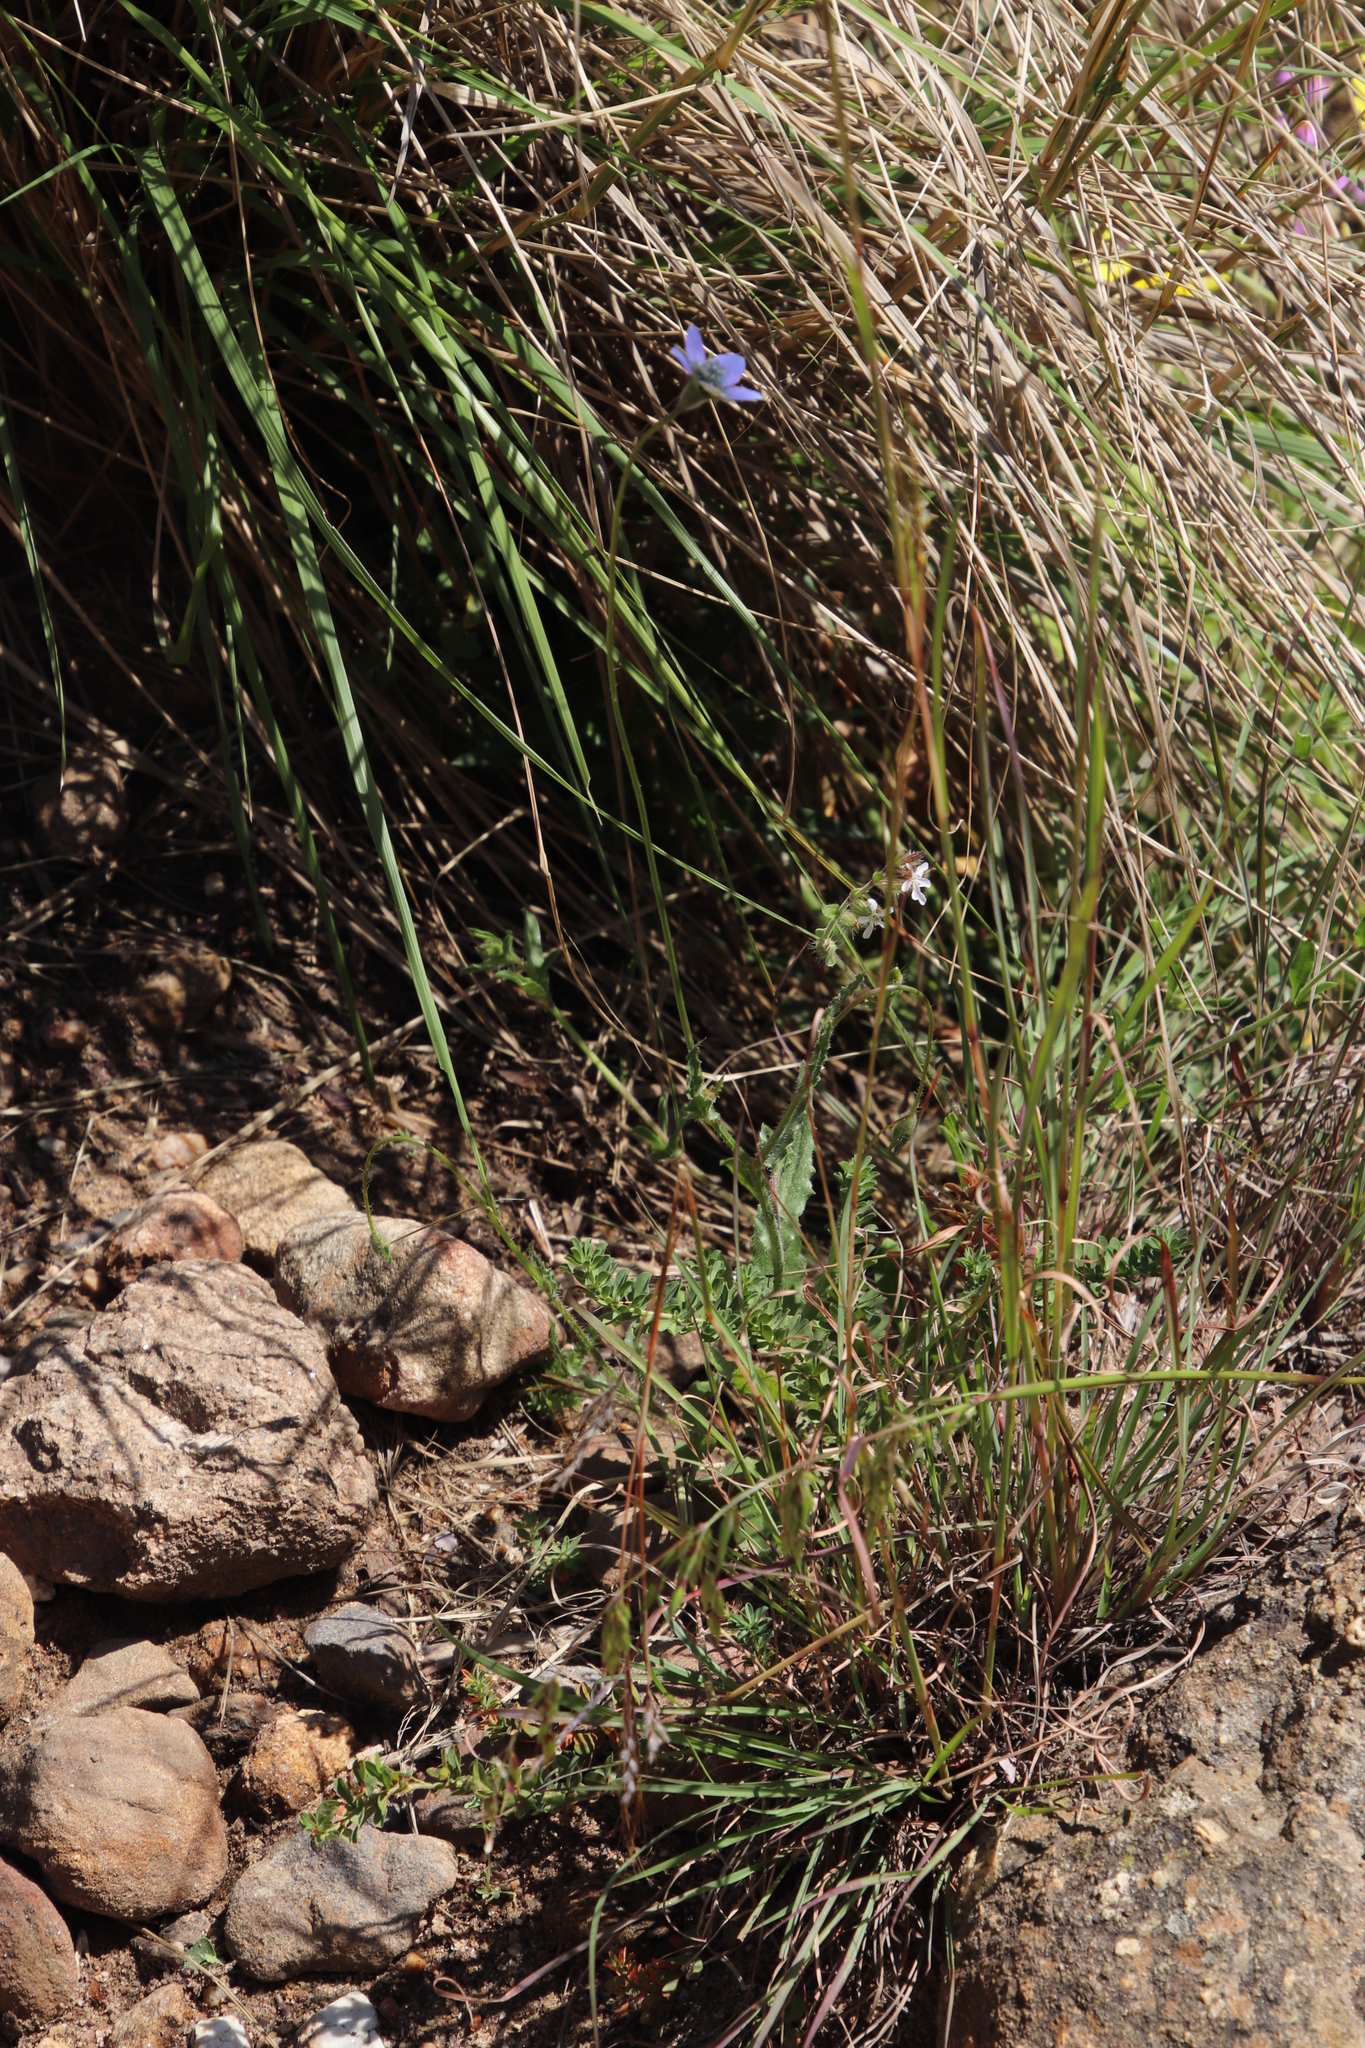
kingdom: Plantae
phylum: Tracheophyta
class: Magnoliopsida
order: Asterales
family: Campanulaceae
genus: Wahlenbergia
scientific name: Wahlenbergia capensis
